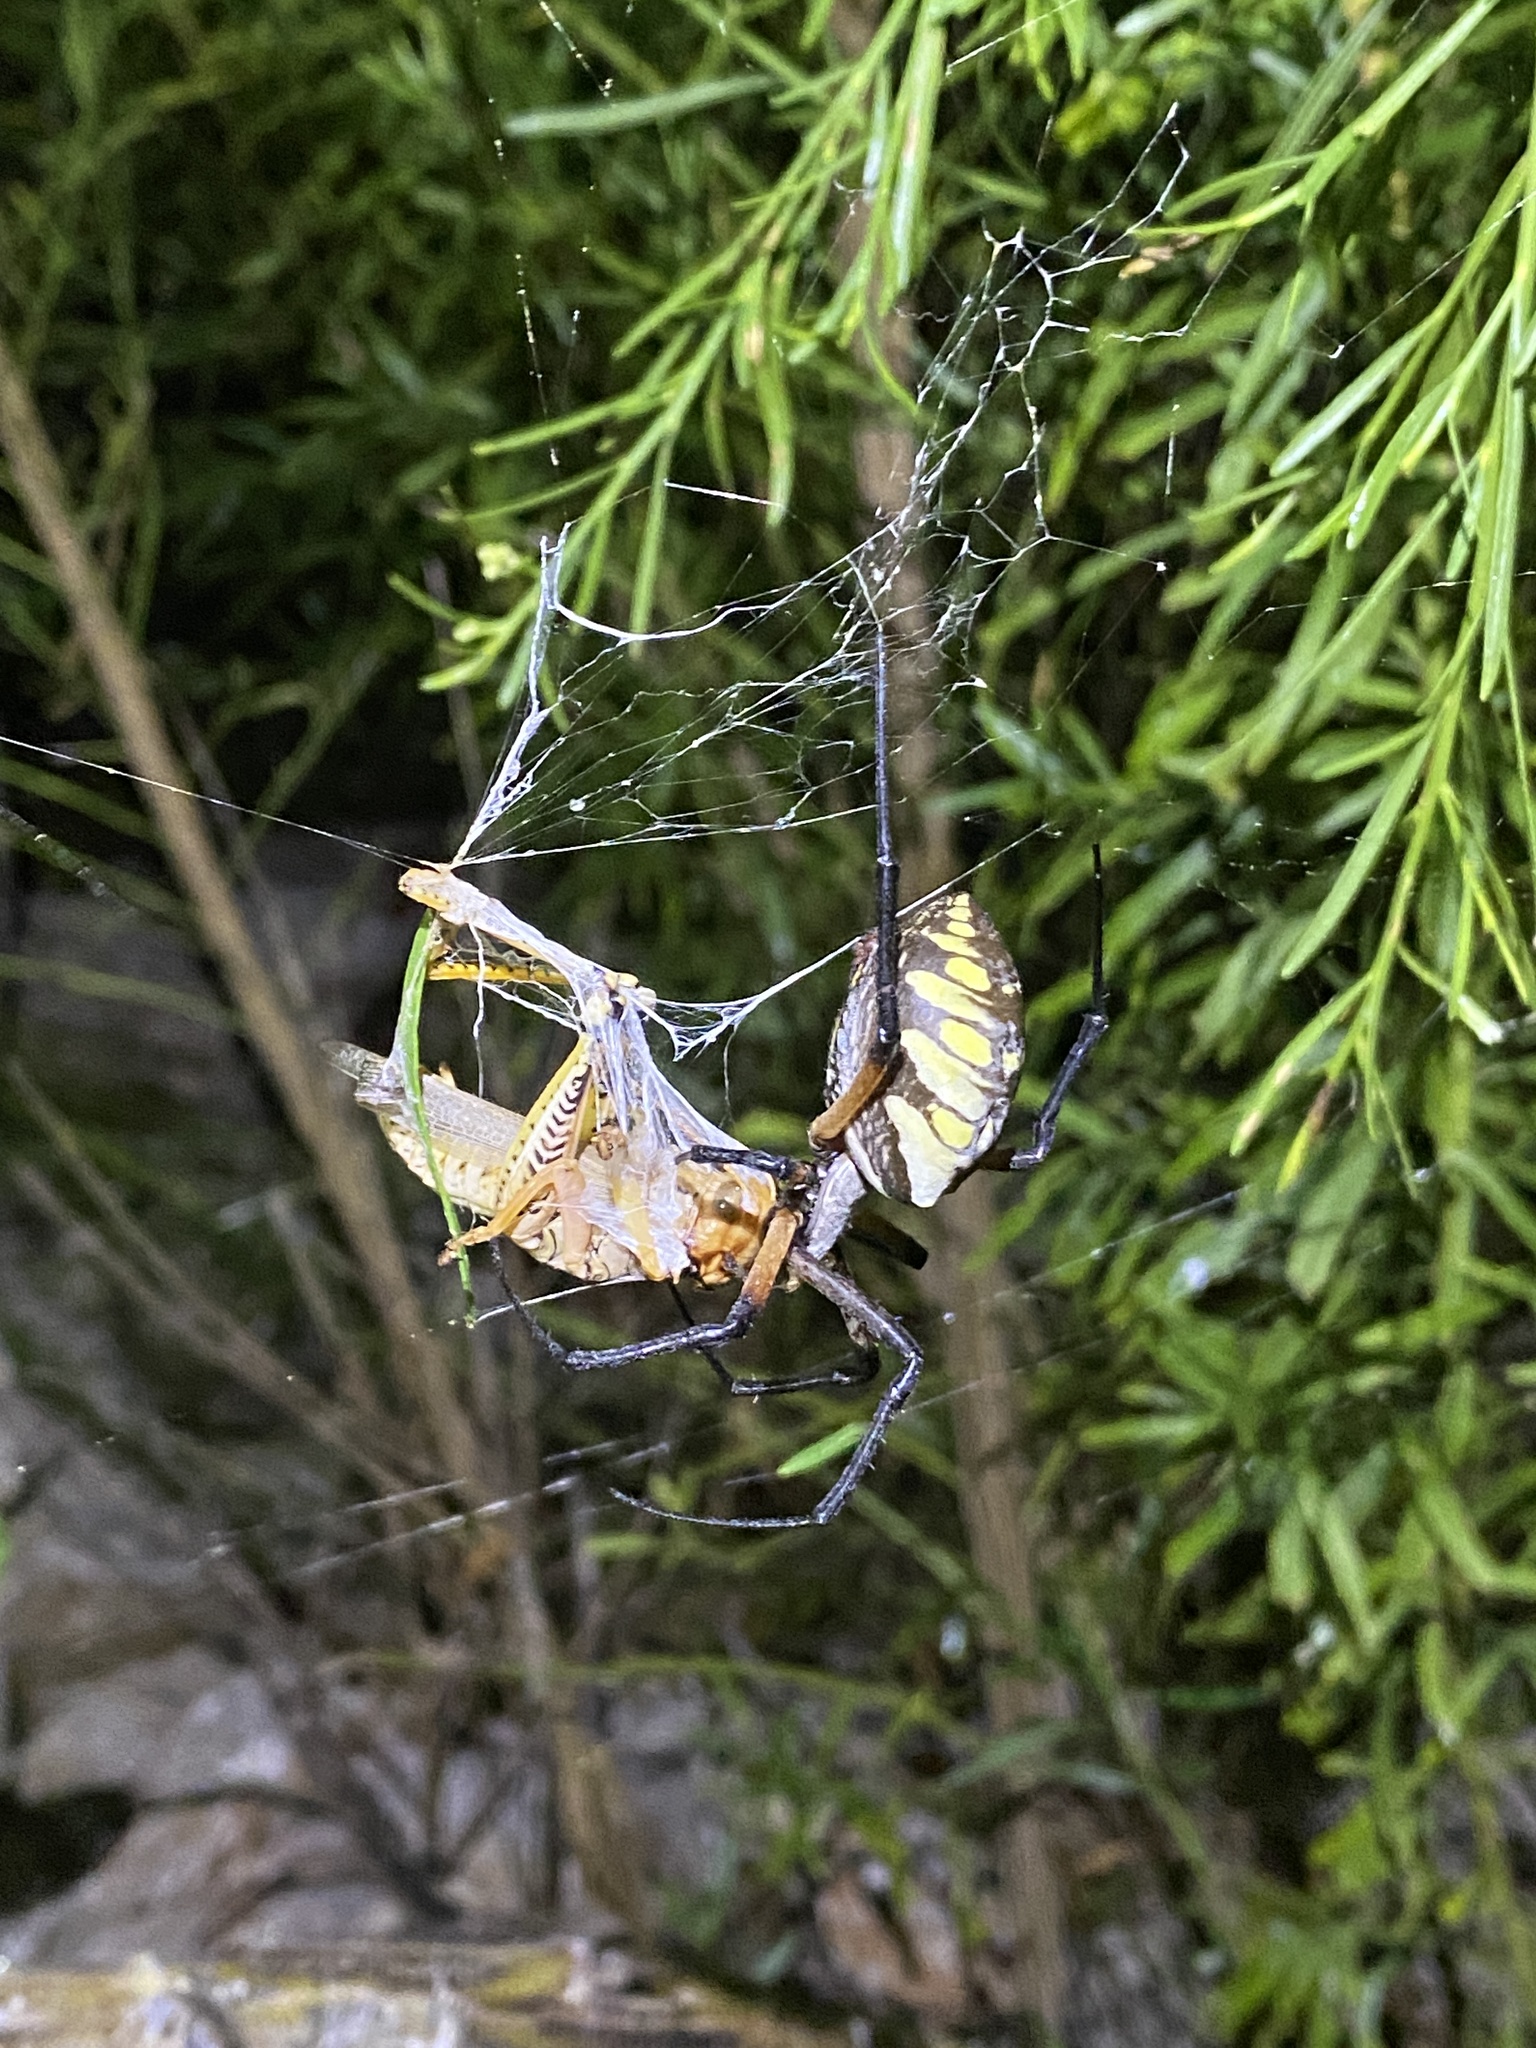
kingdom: Animalia
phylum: Arthropoda
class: Arachnida
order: Araneae
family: Araneidae
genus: Argiope
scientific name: Argiope aurantia
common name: Orb weavers
